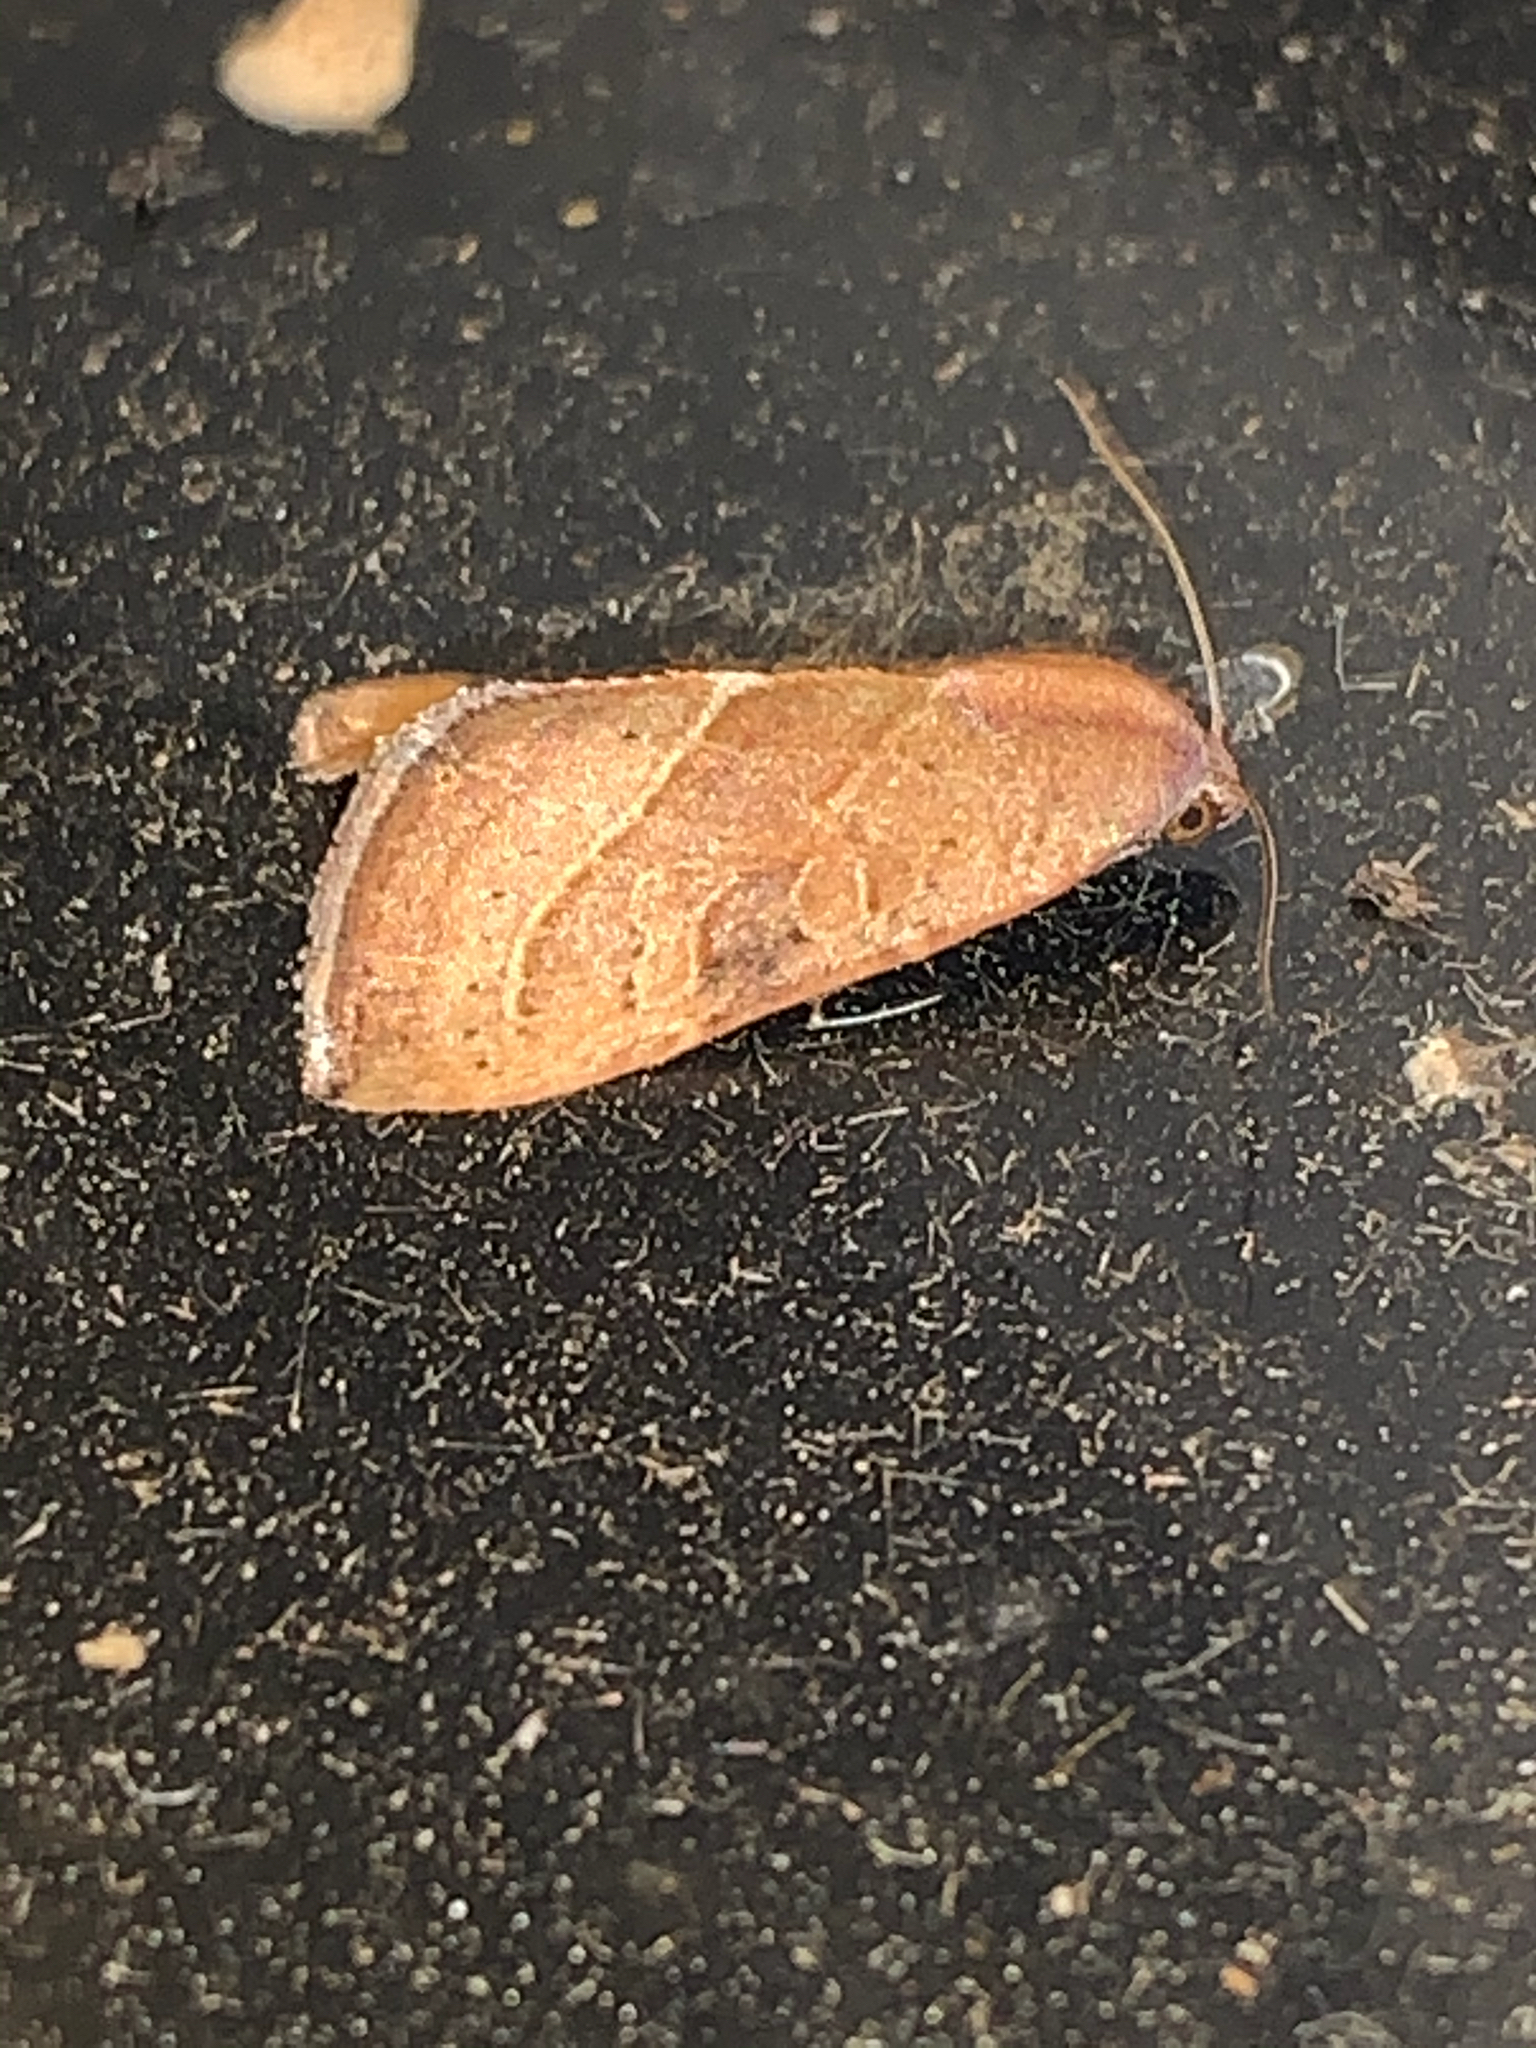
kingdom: Animalia
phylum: Arthropoda
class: Insecta
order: Lepidoptera
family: Noctuidae
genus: Galgula
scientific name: Galgula partita
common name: Wedgeling
